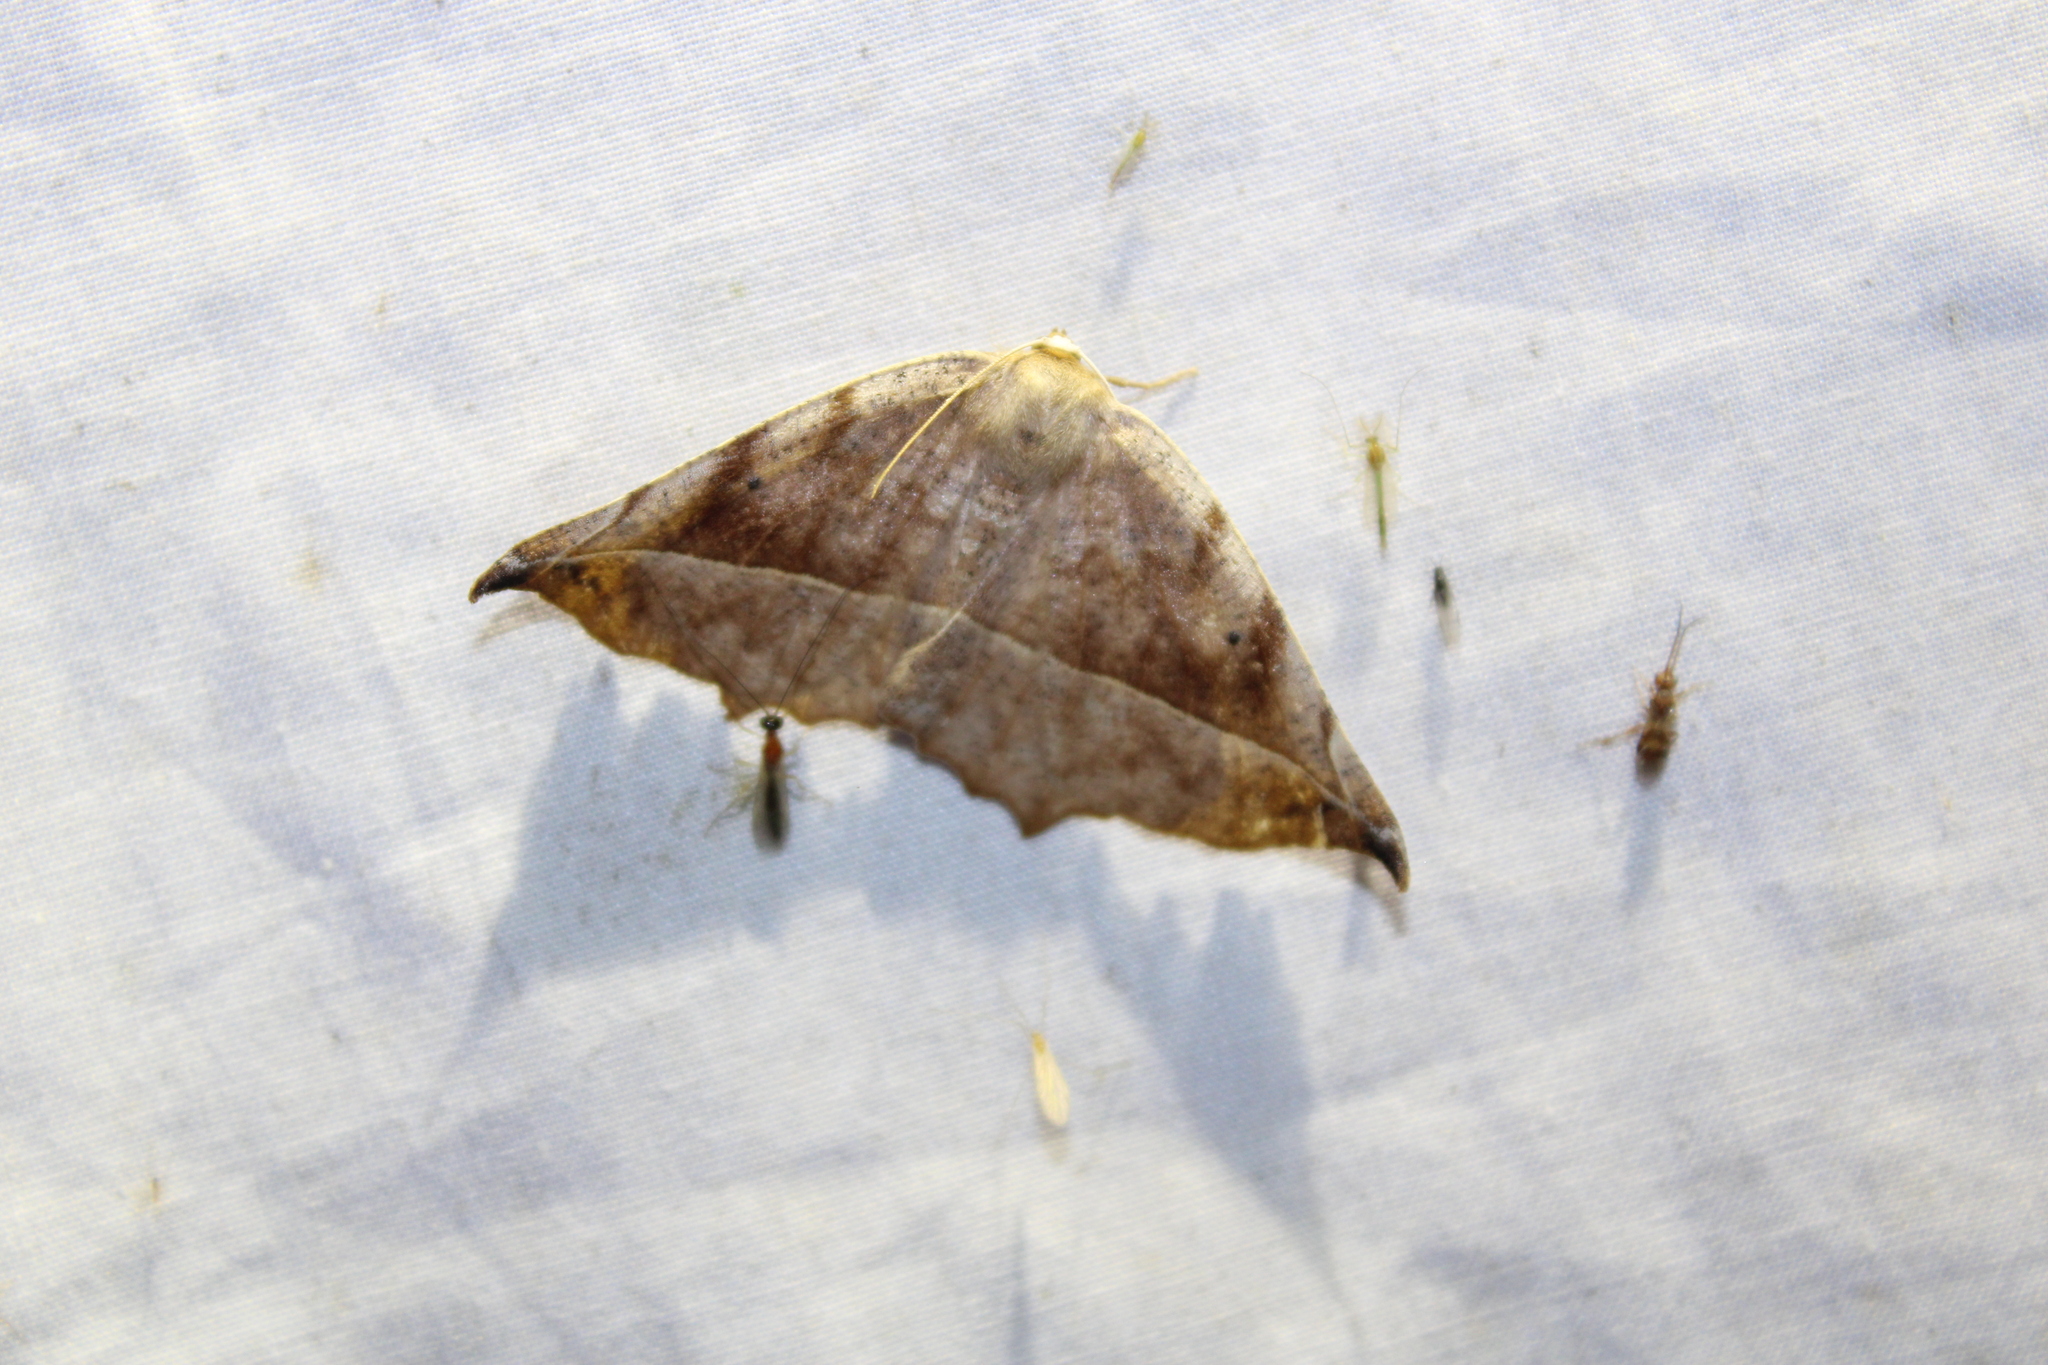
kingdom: Animalia
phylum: Arthropoda
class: Insecta
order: Lepidoptera
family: Geometridae
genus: Eutrapela
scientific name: Eutrapela clemataria
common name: Curved-toothed geometer
